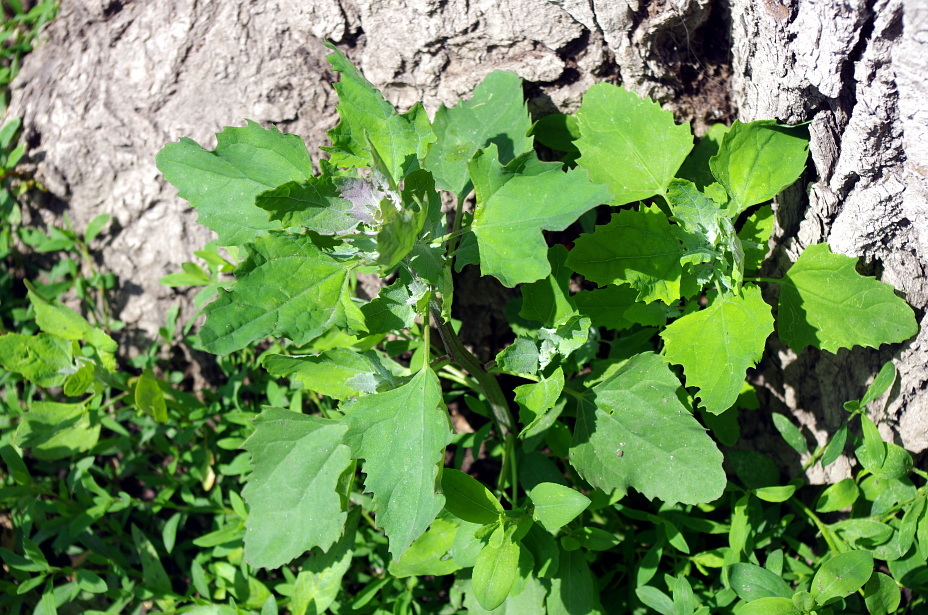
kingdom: Plantae
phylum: Tracheophyta
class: Magnoliopsida
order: Caryophyllales
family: Amaranthaceae
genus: Chenopodium
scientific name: Chenopodium album
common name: Fat-hen
